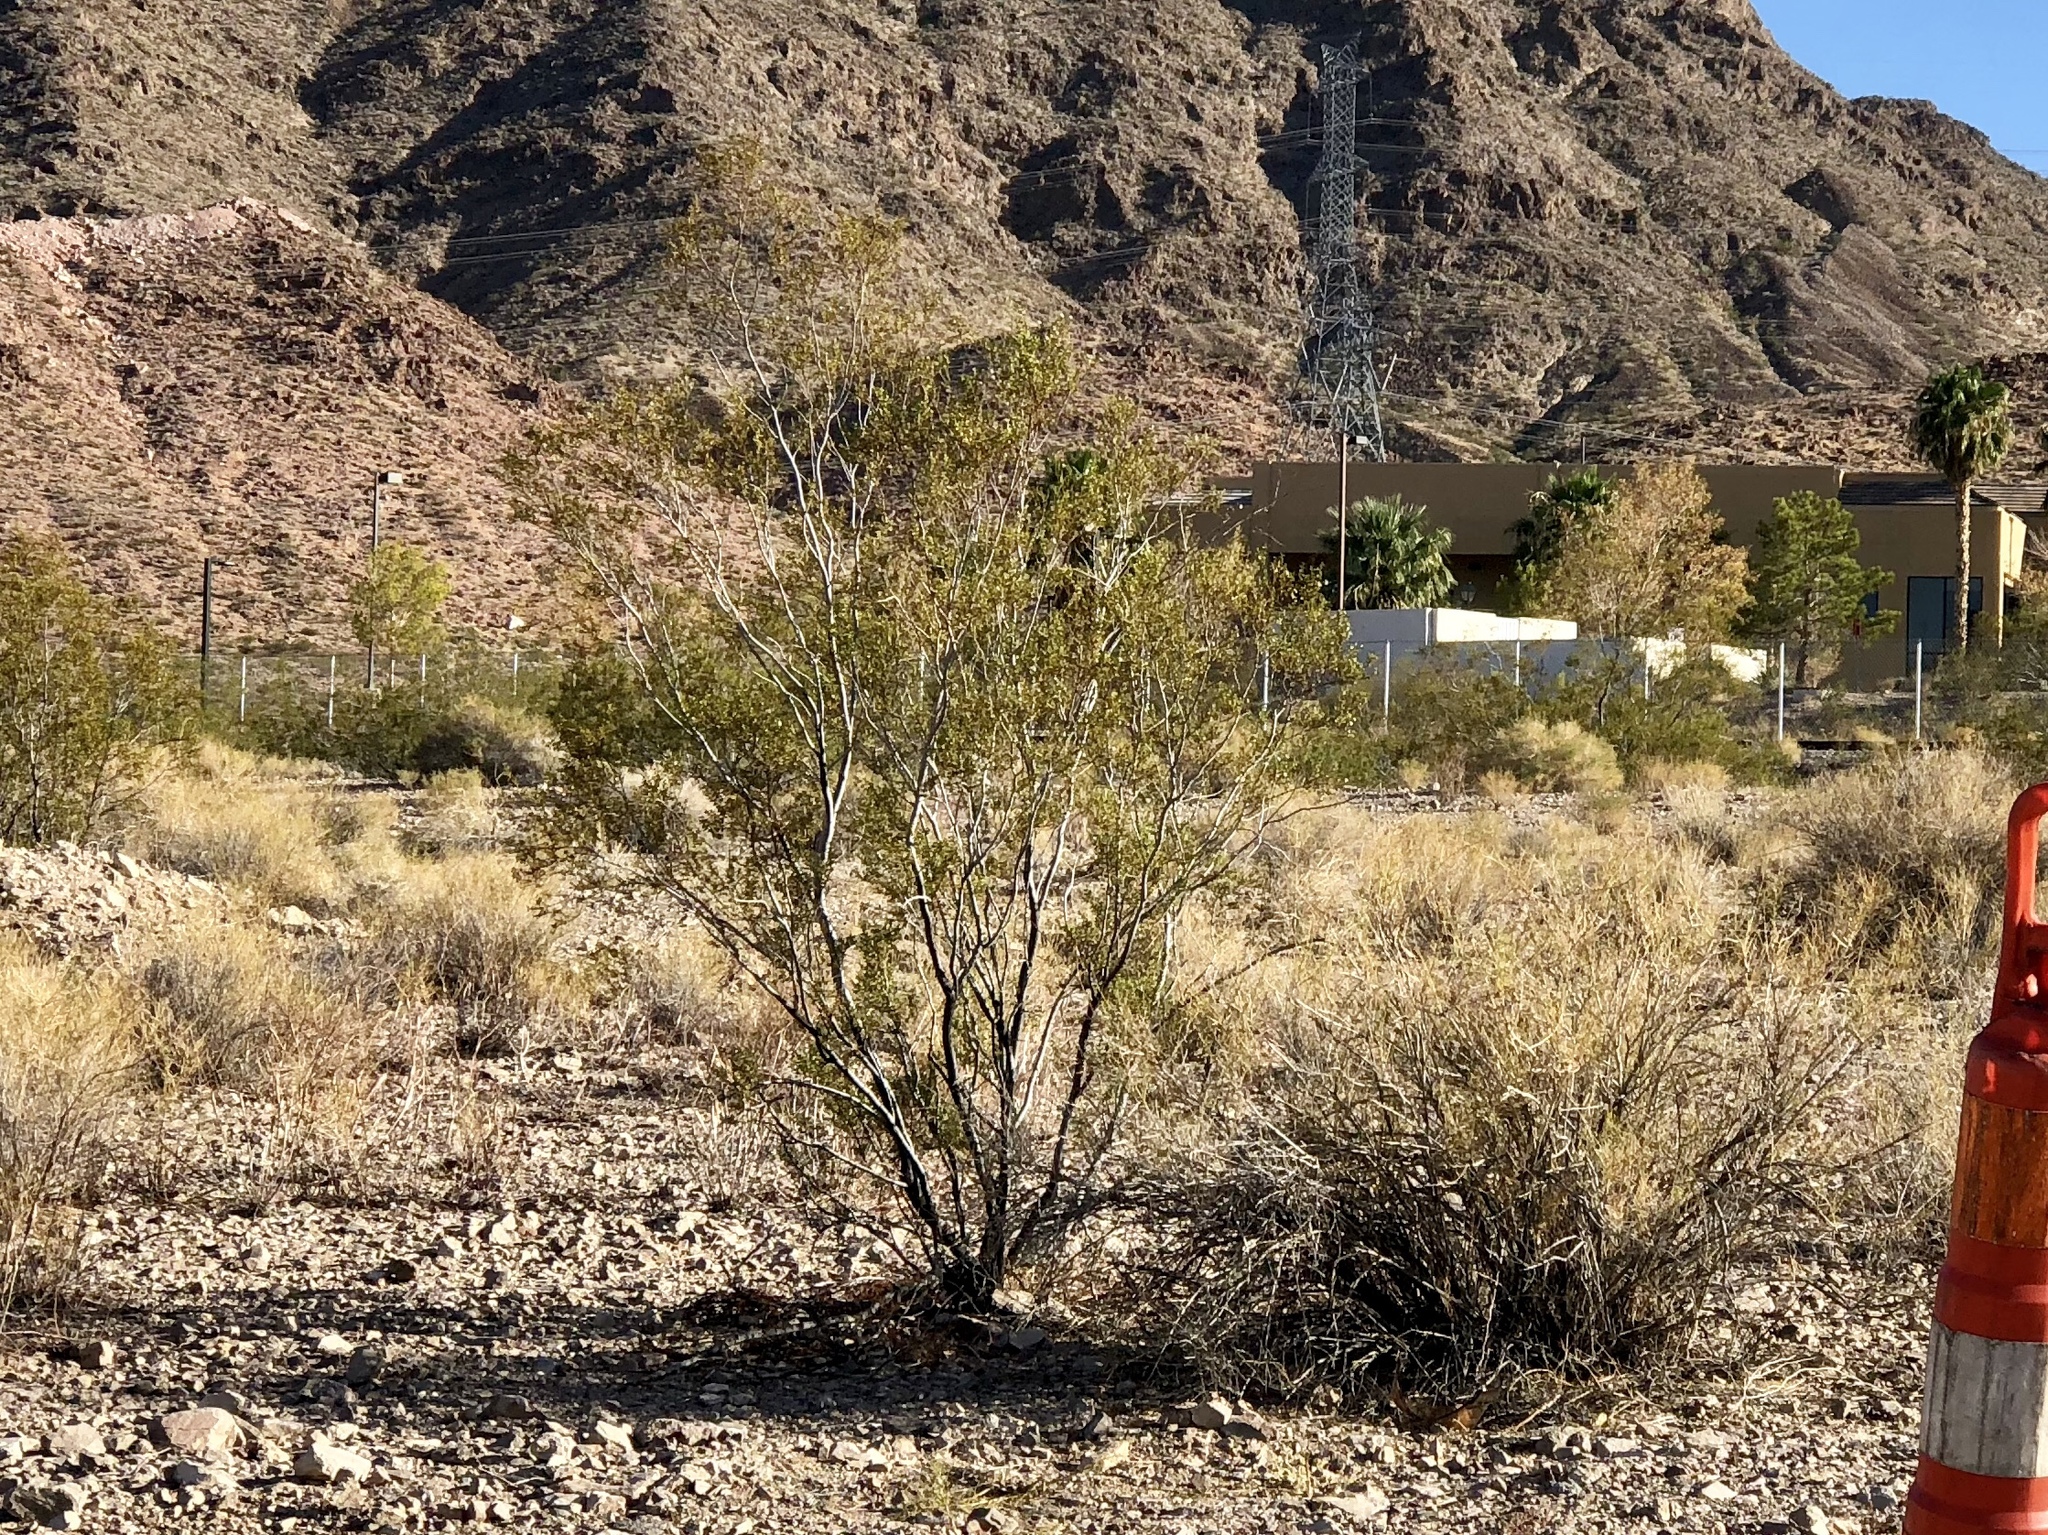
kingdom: Plantae
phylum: Tracheophyta
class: Magnoliopsida
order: Zygophyllales
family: Zygophyllaceae
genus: Larrea
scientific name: Larrea tridentata
